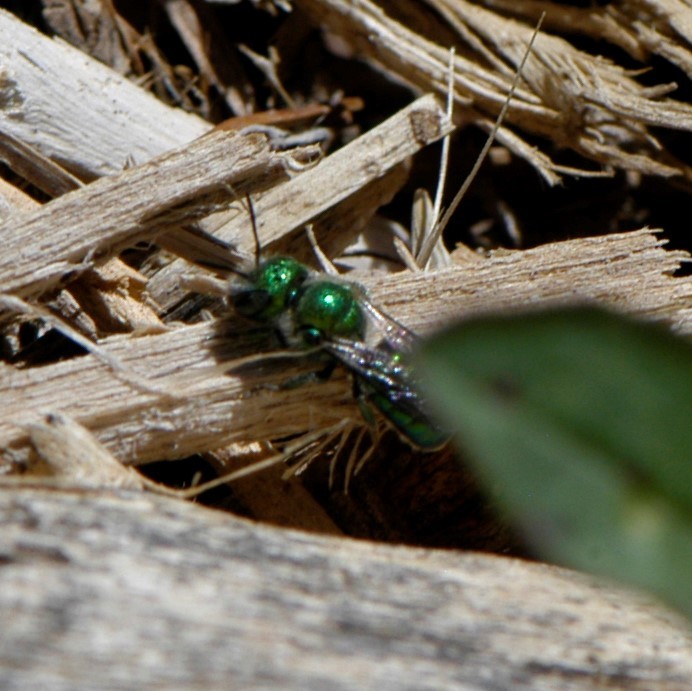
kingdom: Animalia
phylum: Arthropoda
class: Insecta
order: Hymenoptera
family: Megachilidae
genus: Hoplitis
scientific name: Hoplitis fulgida
